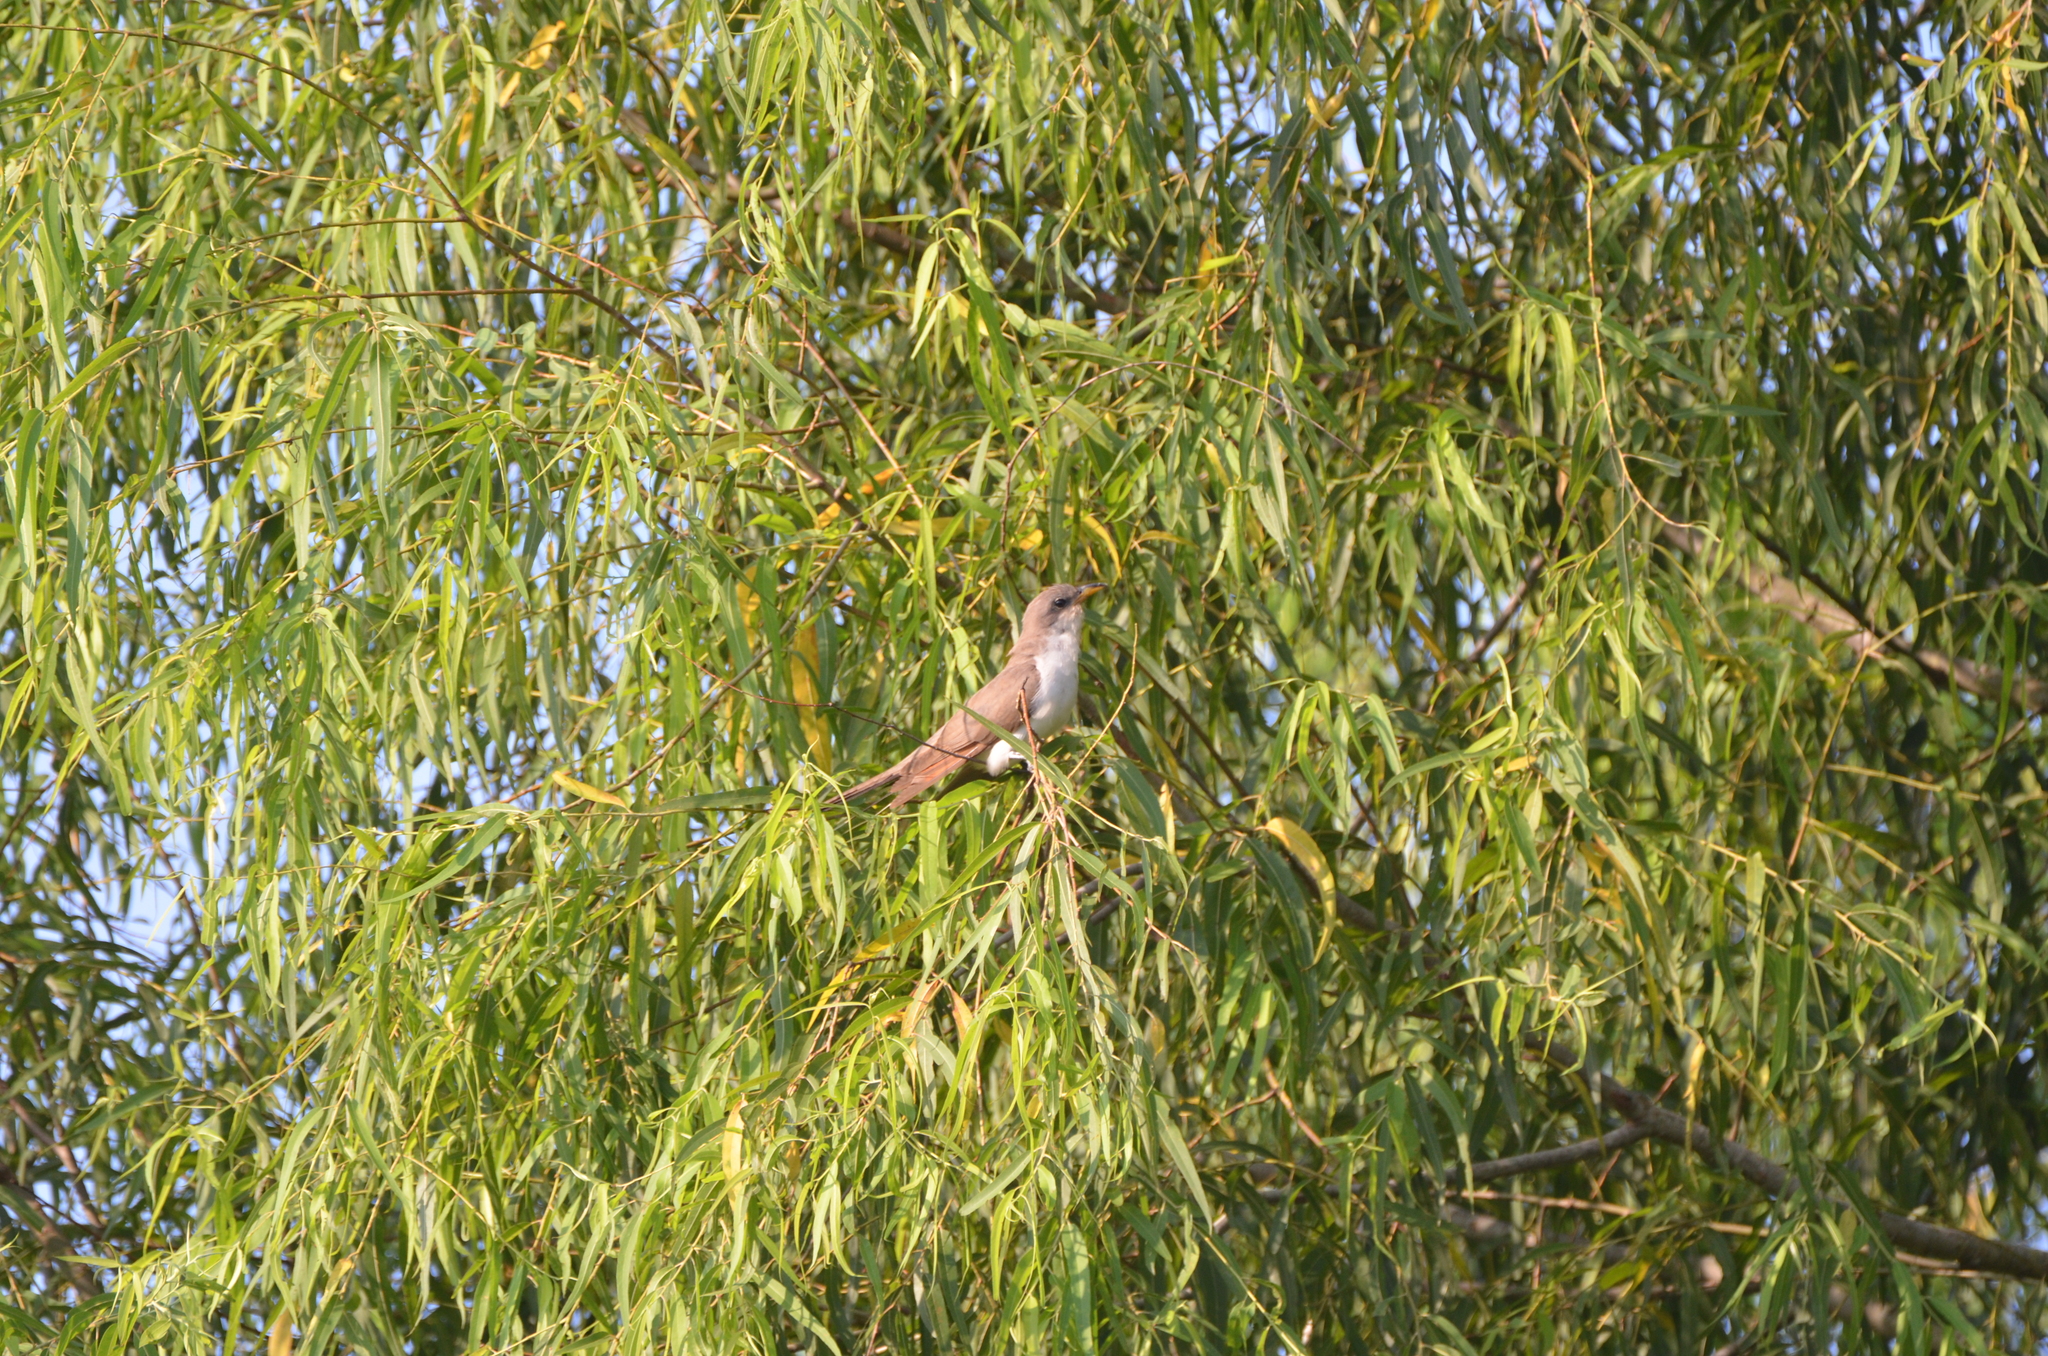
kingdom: Animalia
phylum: Chordata
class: Aves
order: Cuculiformes
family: Cuculidae
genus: Coccyzus
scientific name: Coccyzus americanus
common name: Yellow-billed cuckoo
